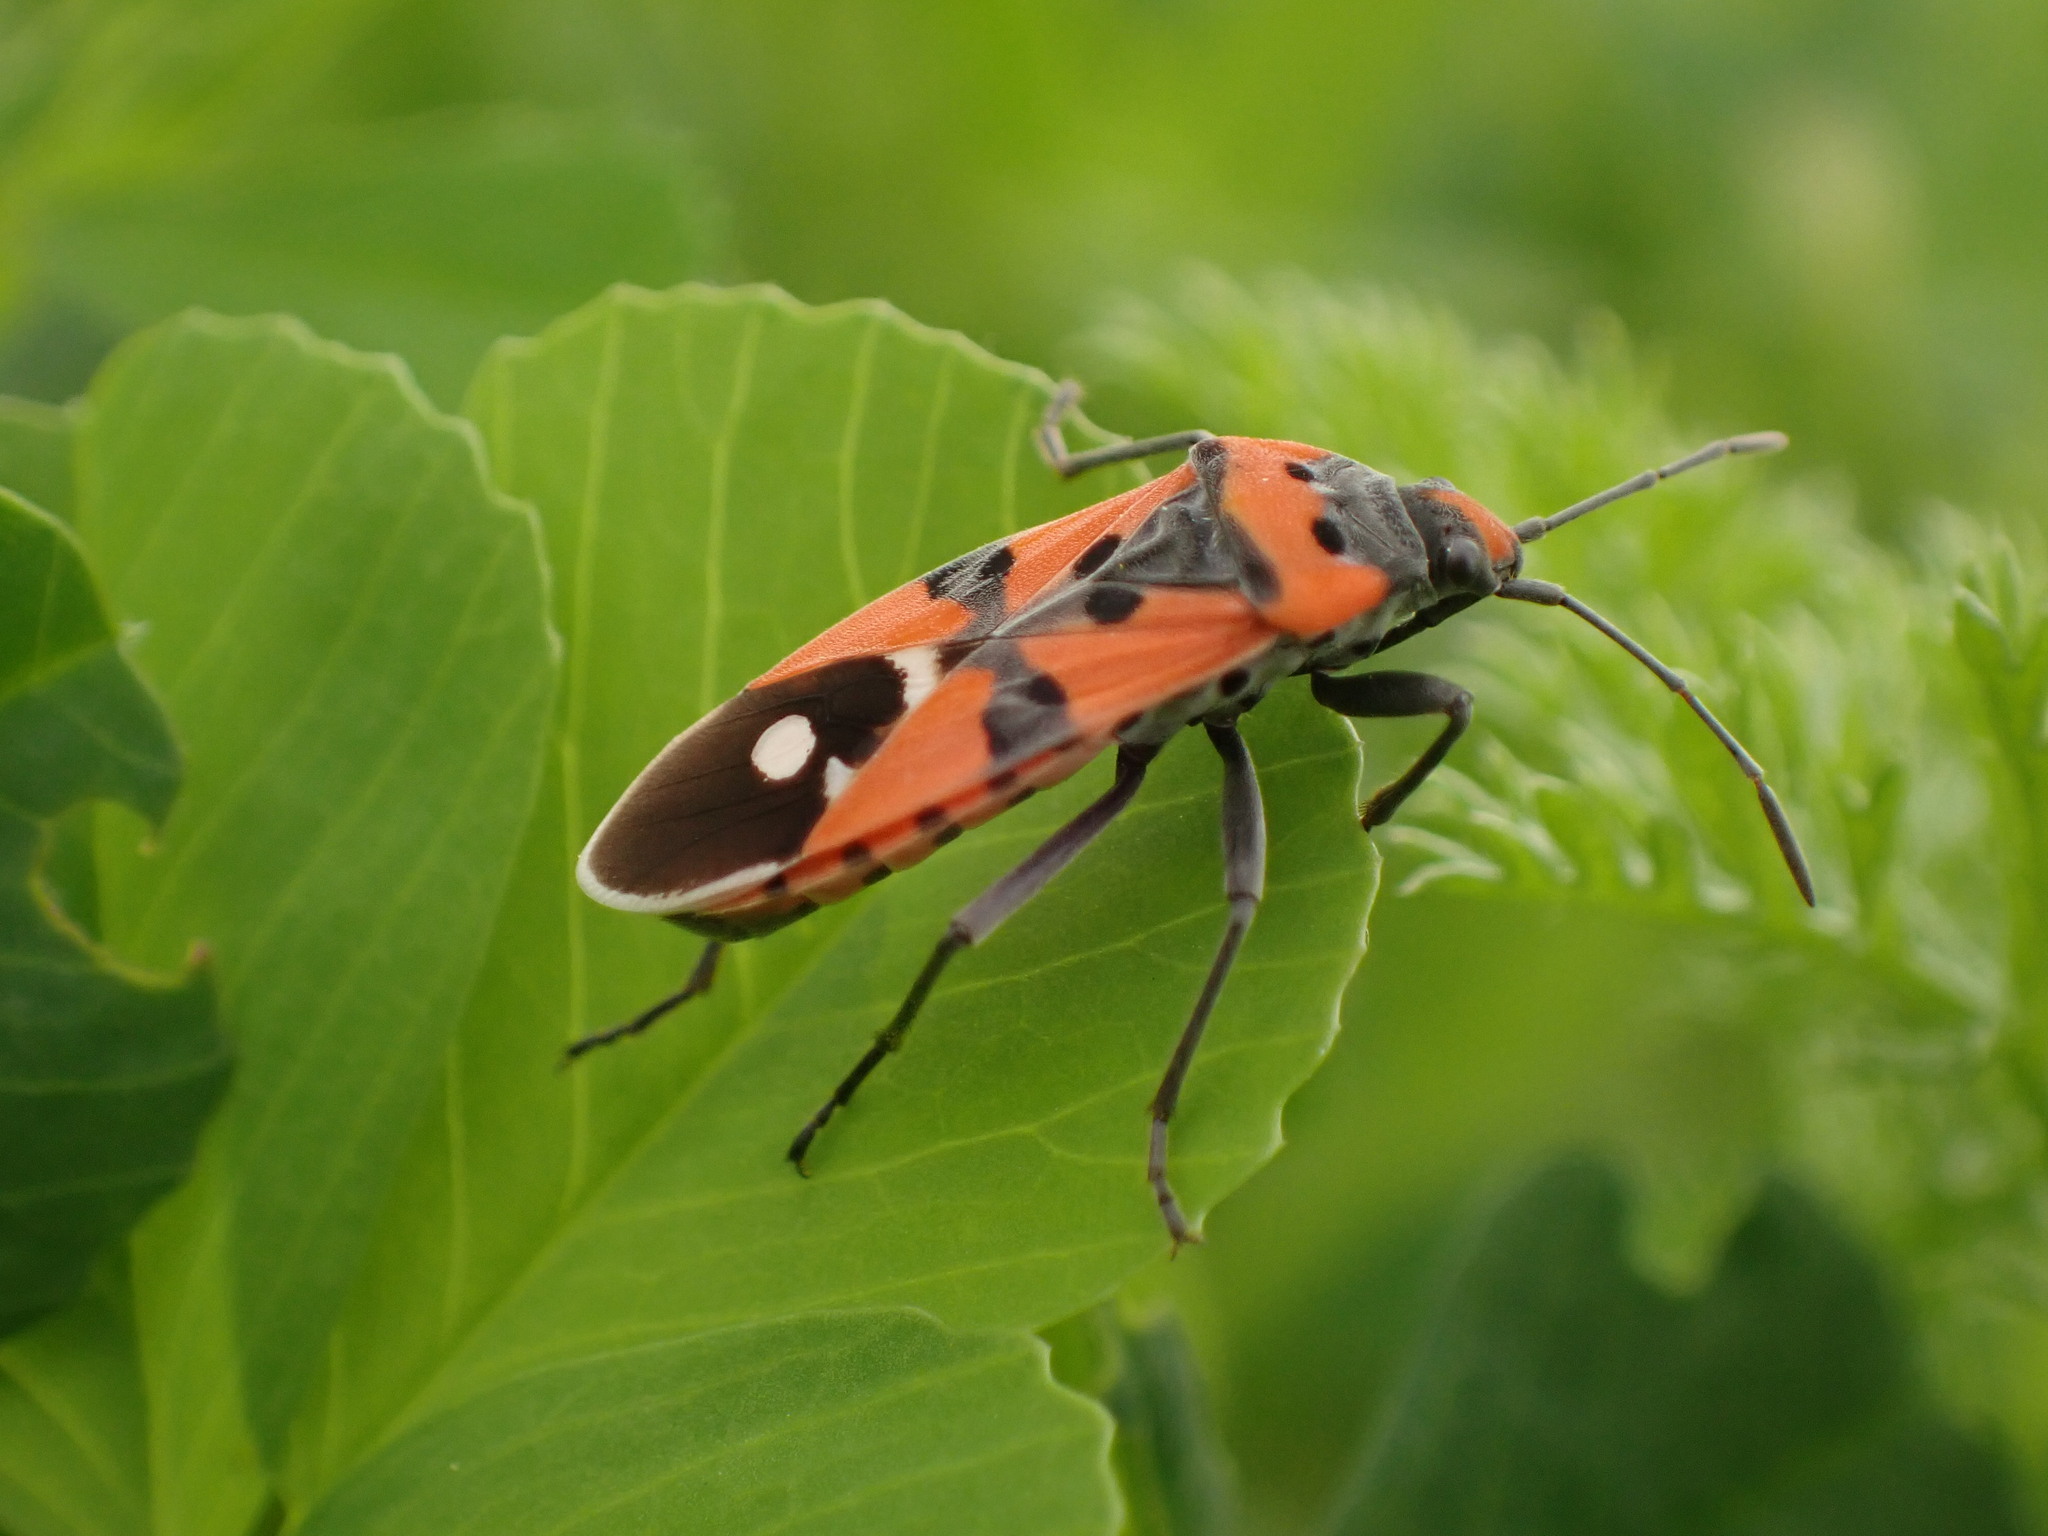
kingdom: Animalia
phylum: Arthropoda
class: Insecta
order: Hemiptera
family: Lygaeidae
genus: Lygaeus
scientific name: Lygaeus equestris
